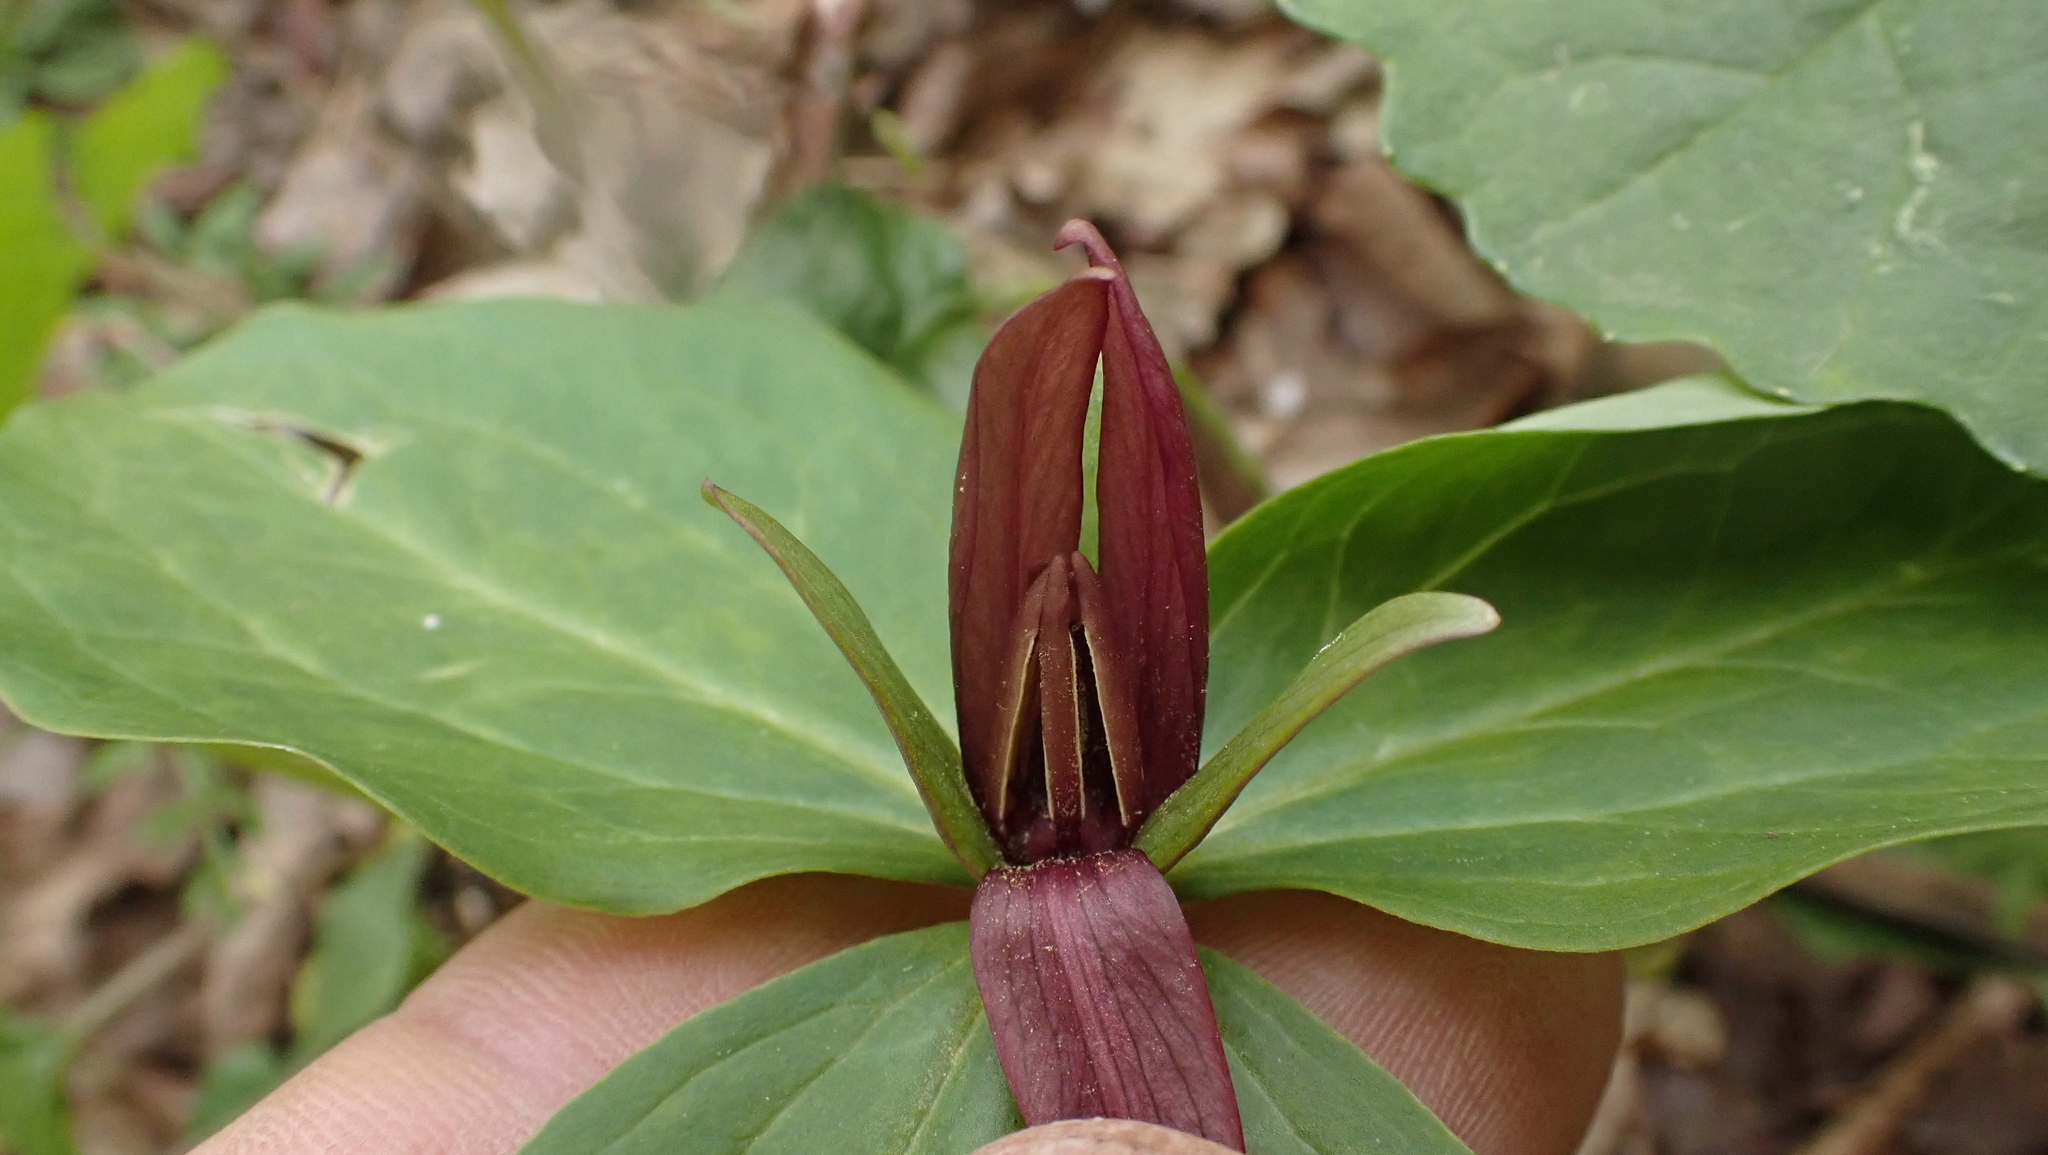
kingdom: Plantae
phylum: Tracheophyta
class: Liliopsida
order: Liliales
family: Melanthiaceae
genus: Trillium
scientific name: Trillium sessile
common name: Sessile trillium
